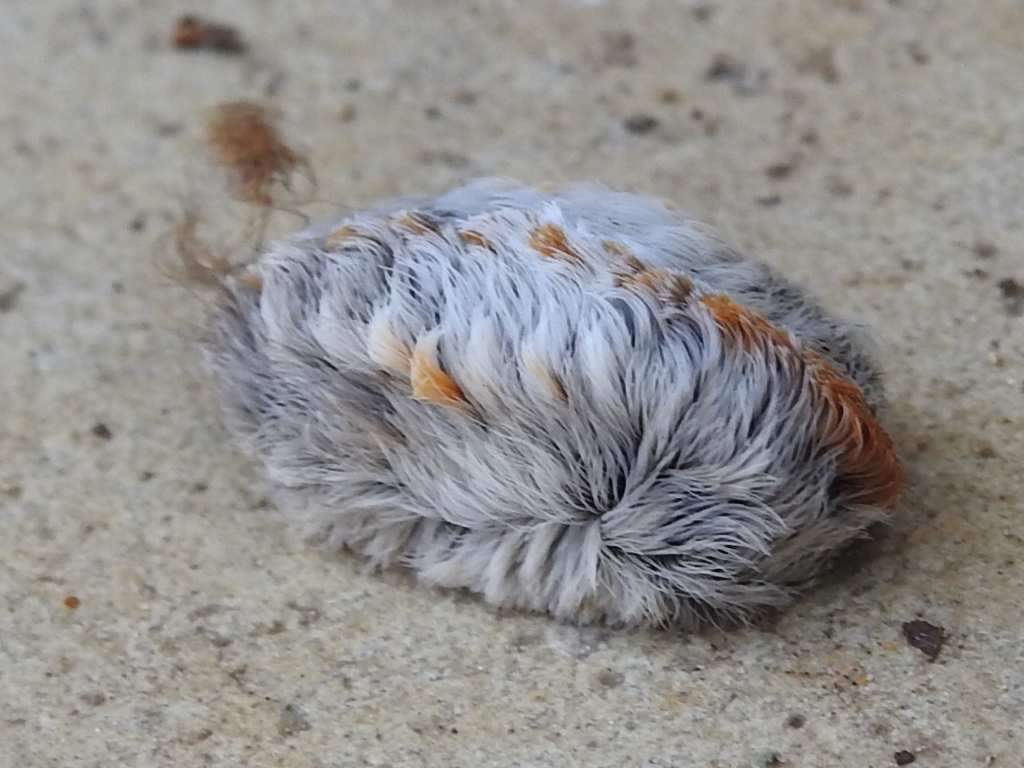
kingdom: Animalia
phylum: Arthropoda
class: Insecta
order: Lepidoptera
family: Megalopygidae
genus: Megalopyge
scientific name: Megalopyge opercularis
